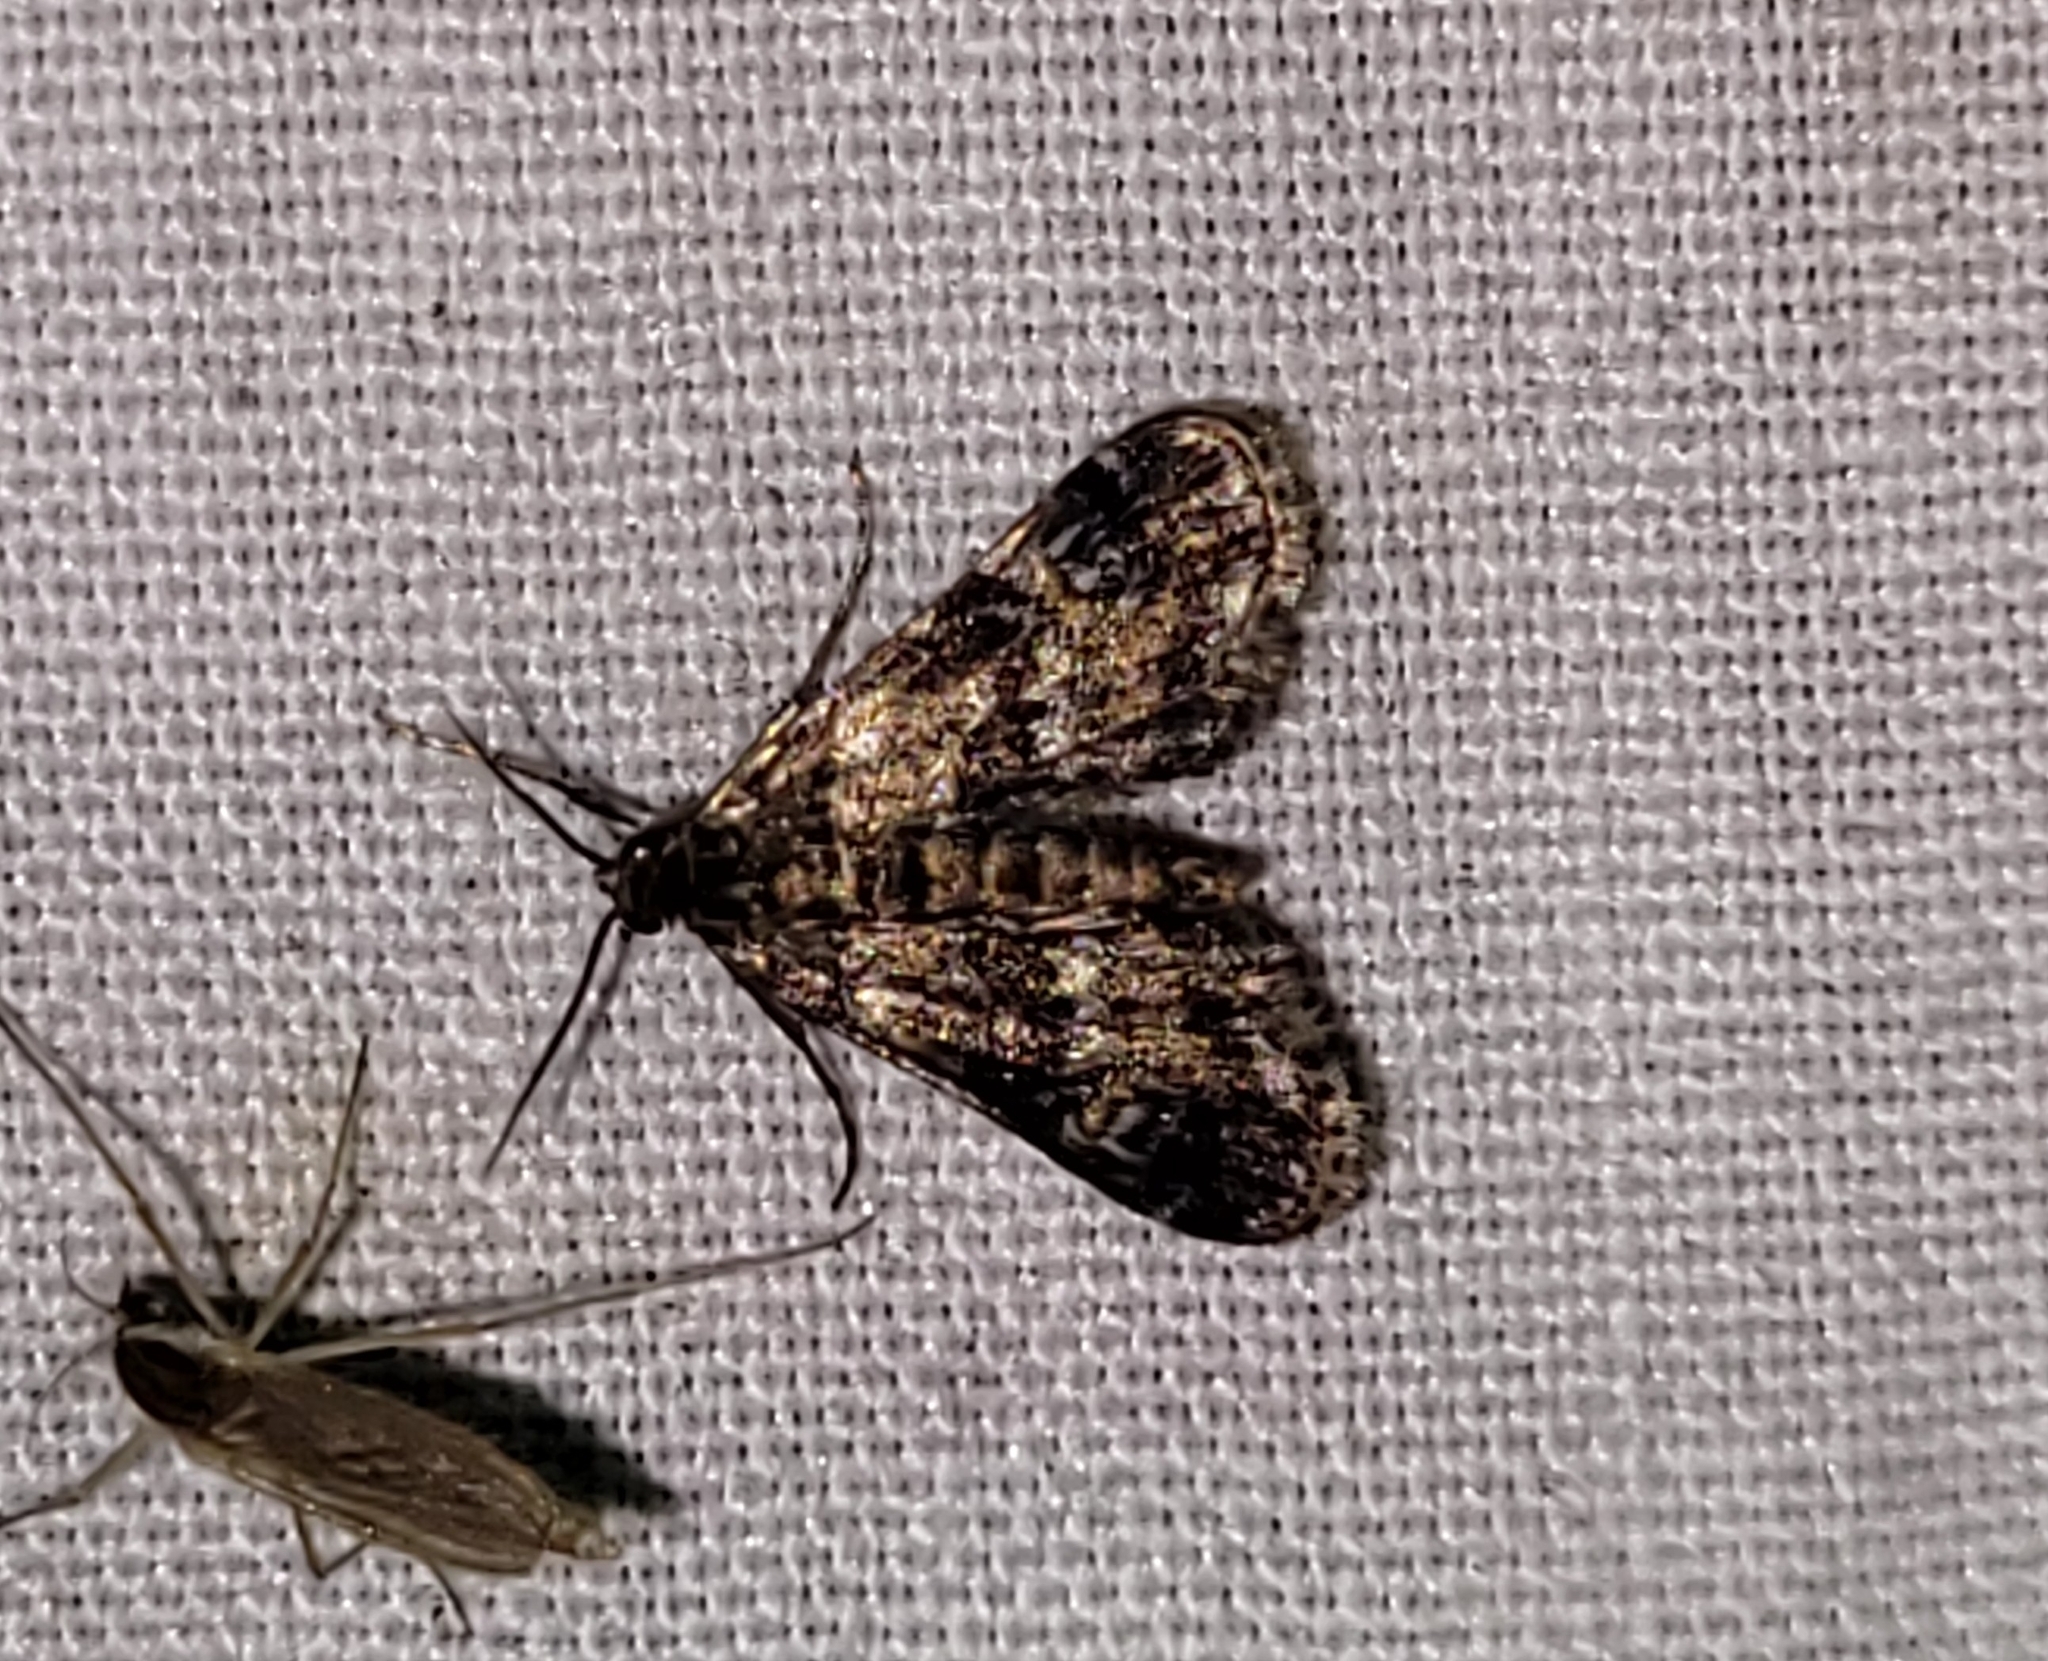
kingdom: Animalia
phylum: Arthropoda
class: Insecta
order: Lepidoptera
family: Crambidae
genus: Elophila
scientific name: Elophila obliteralis
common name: Waterlily leafcutter moth
